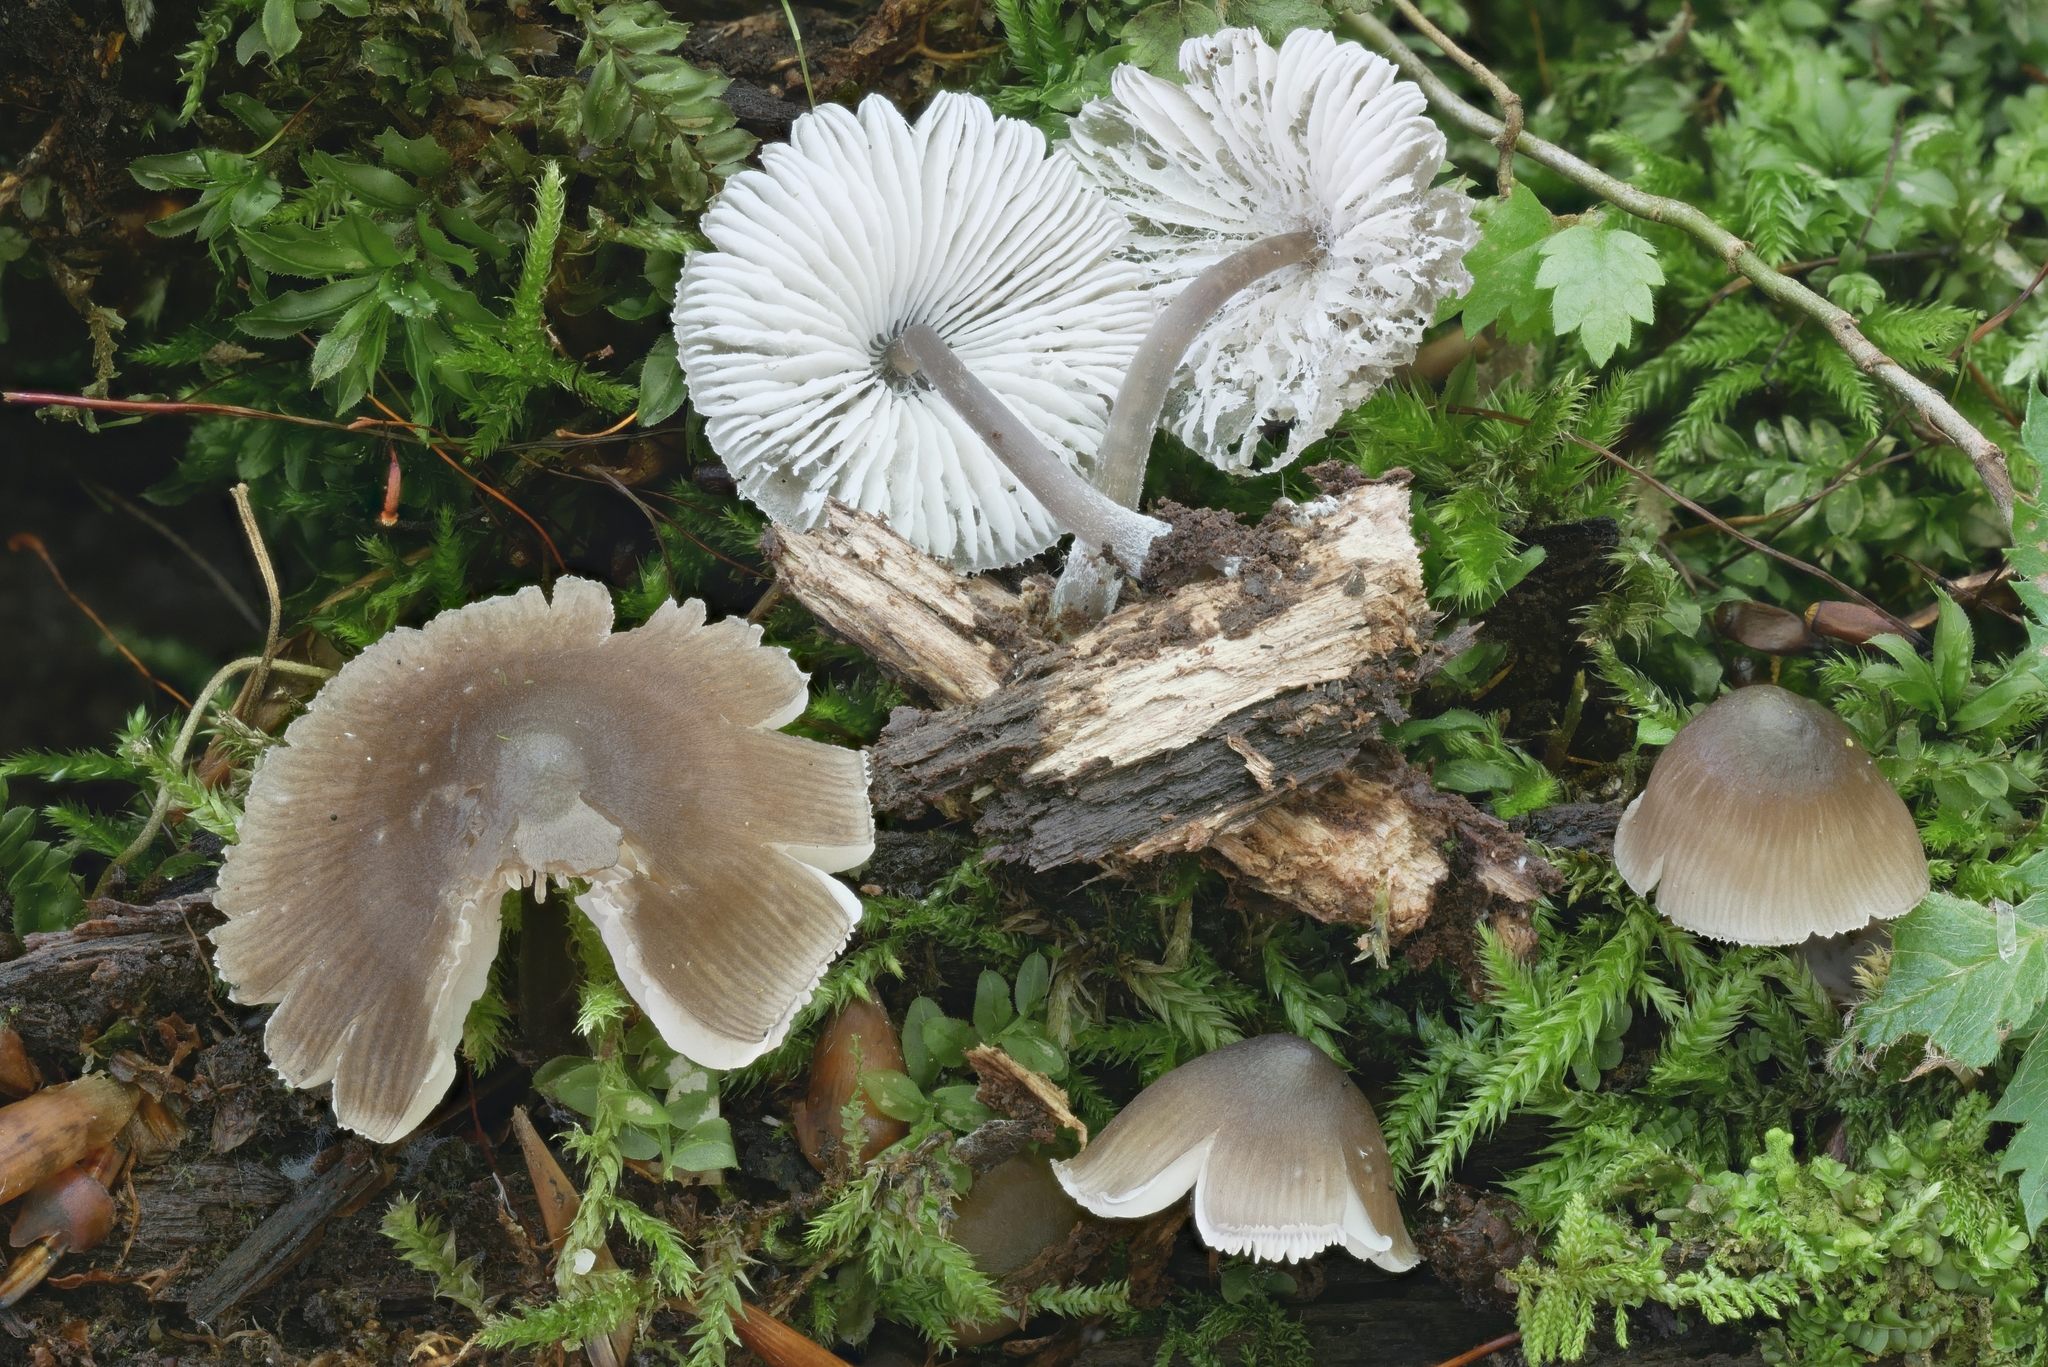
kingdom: Fungi
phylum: Basidiomycota
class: Agaricomycetes
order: Agaricales
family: Mycenaceae
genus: Mycena
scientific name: Mycena robusta
